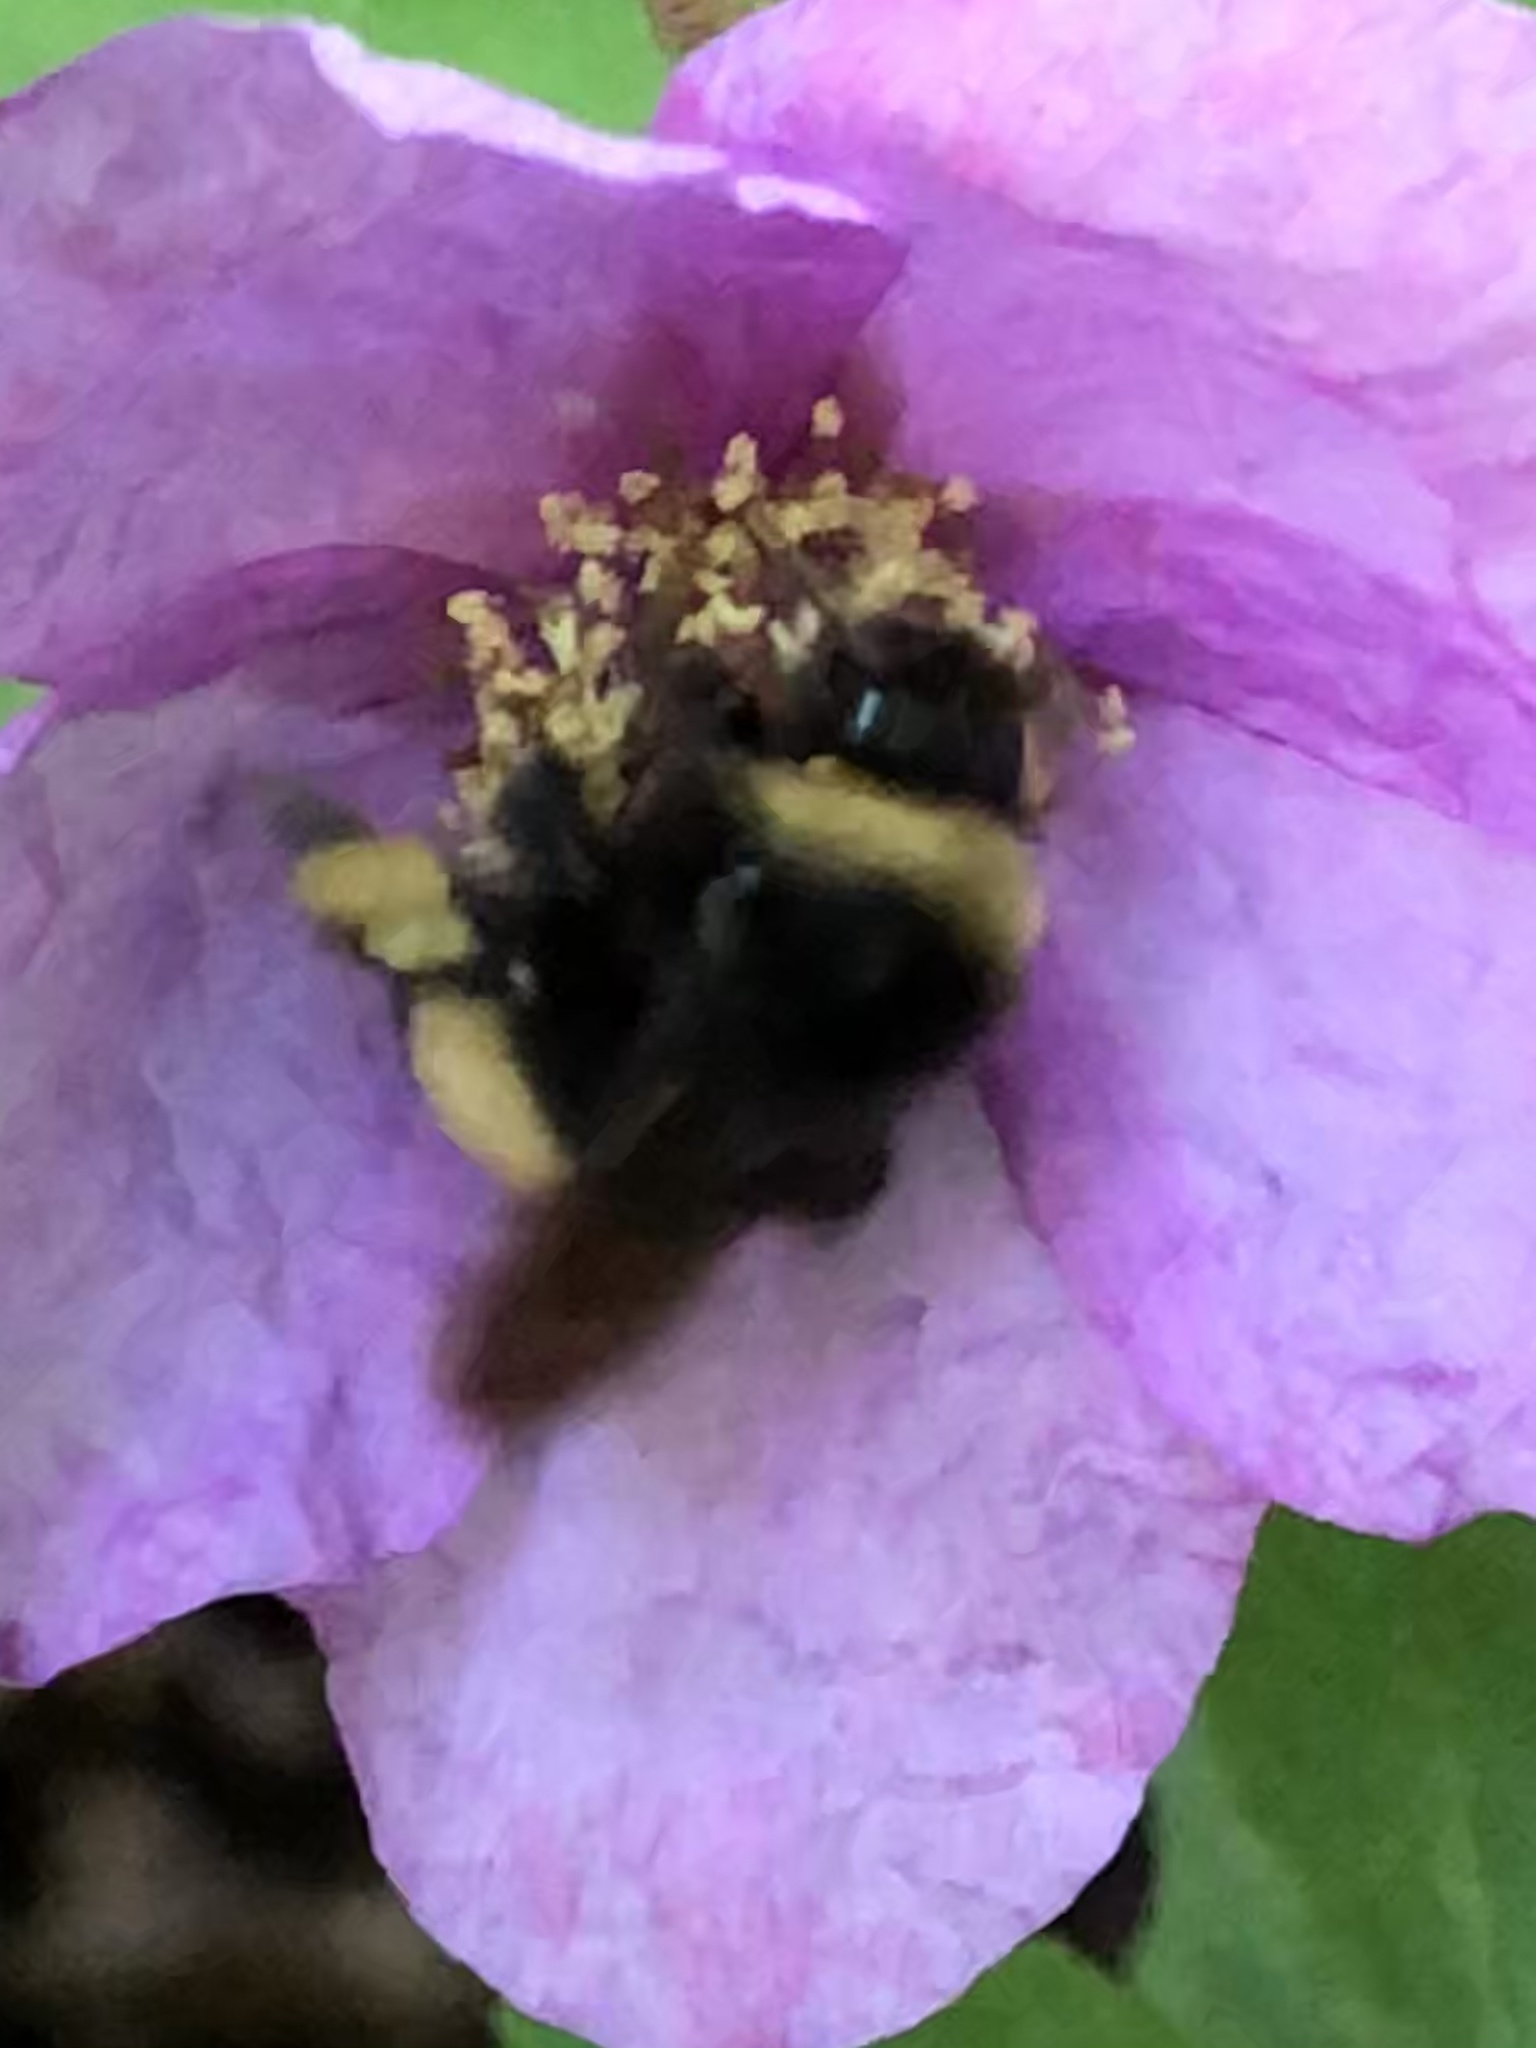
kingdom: Animalia
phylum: Arthropoda
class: Insecta
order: Hymenoptera
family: Apidae
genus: Bombus
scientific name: Bombus terricola
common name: Yellow-banded bumble bee
